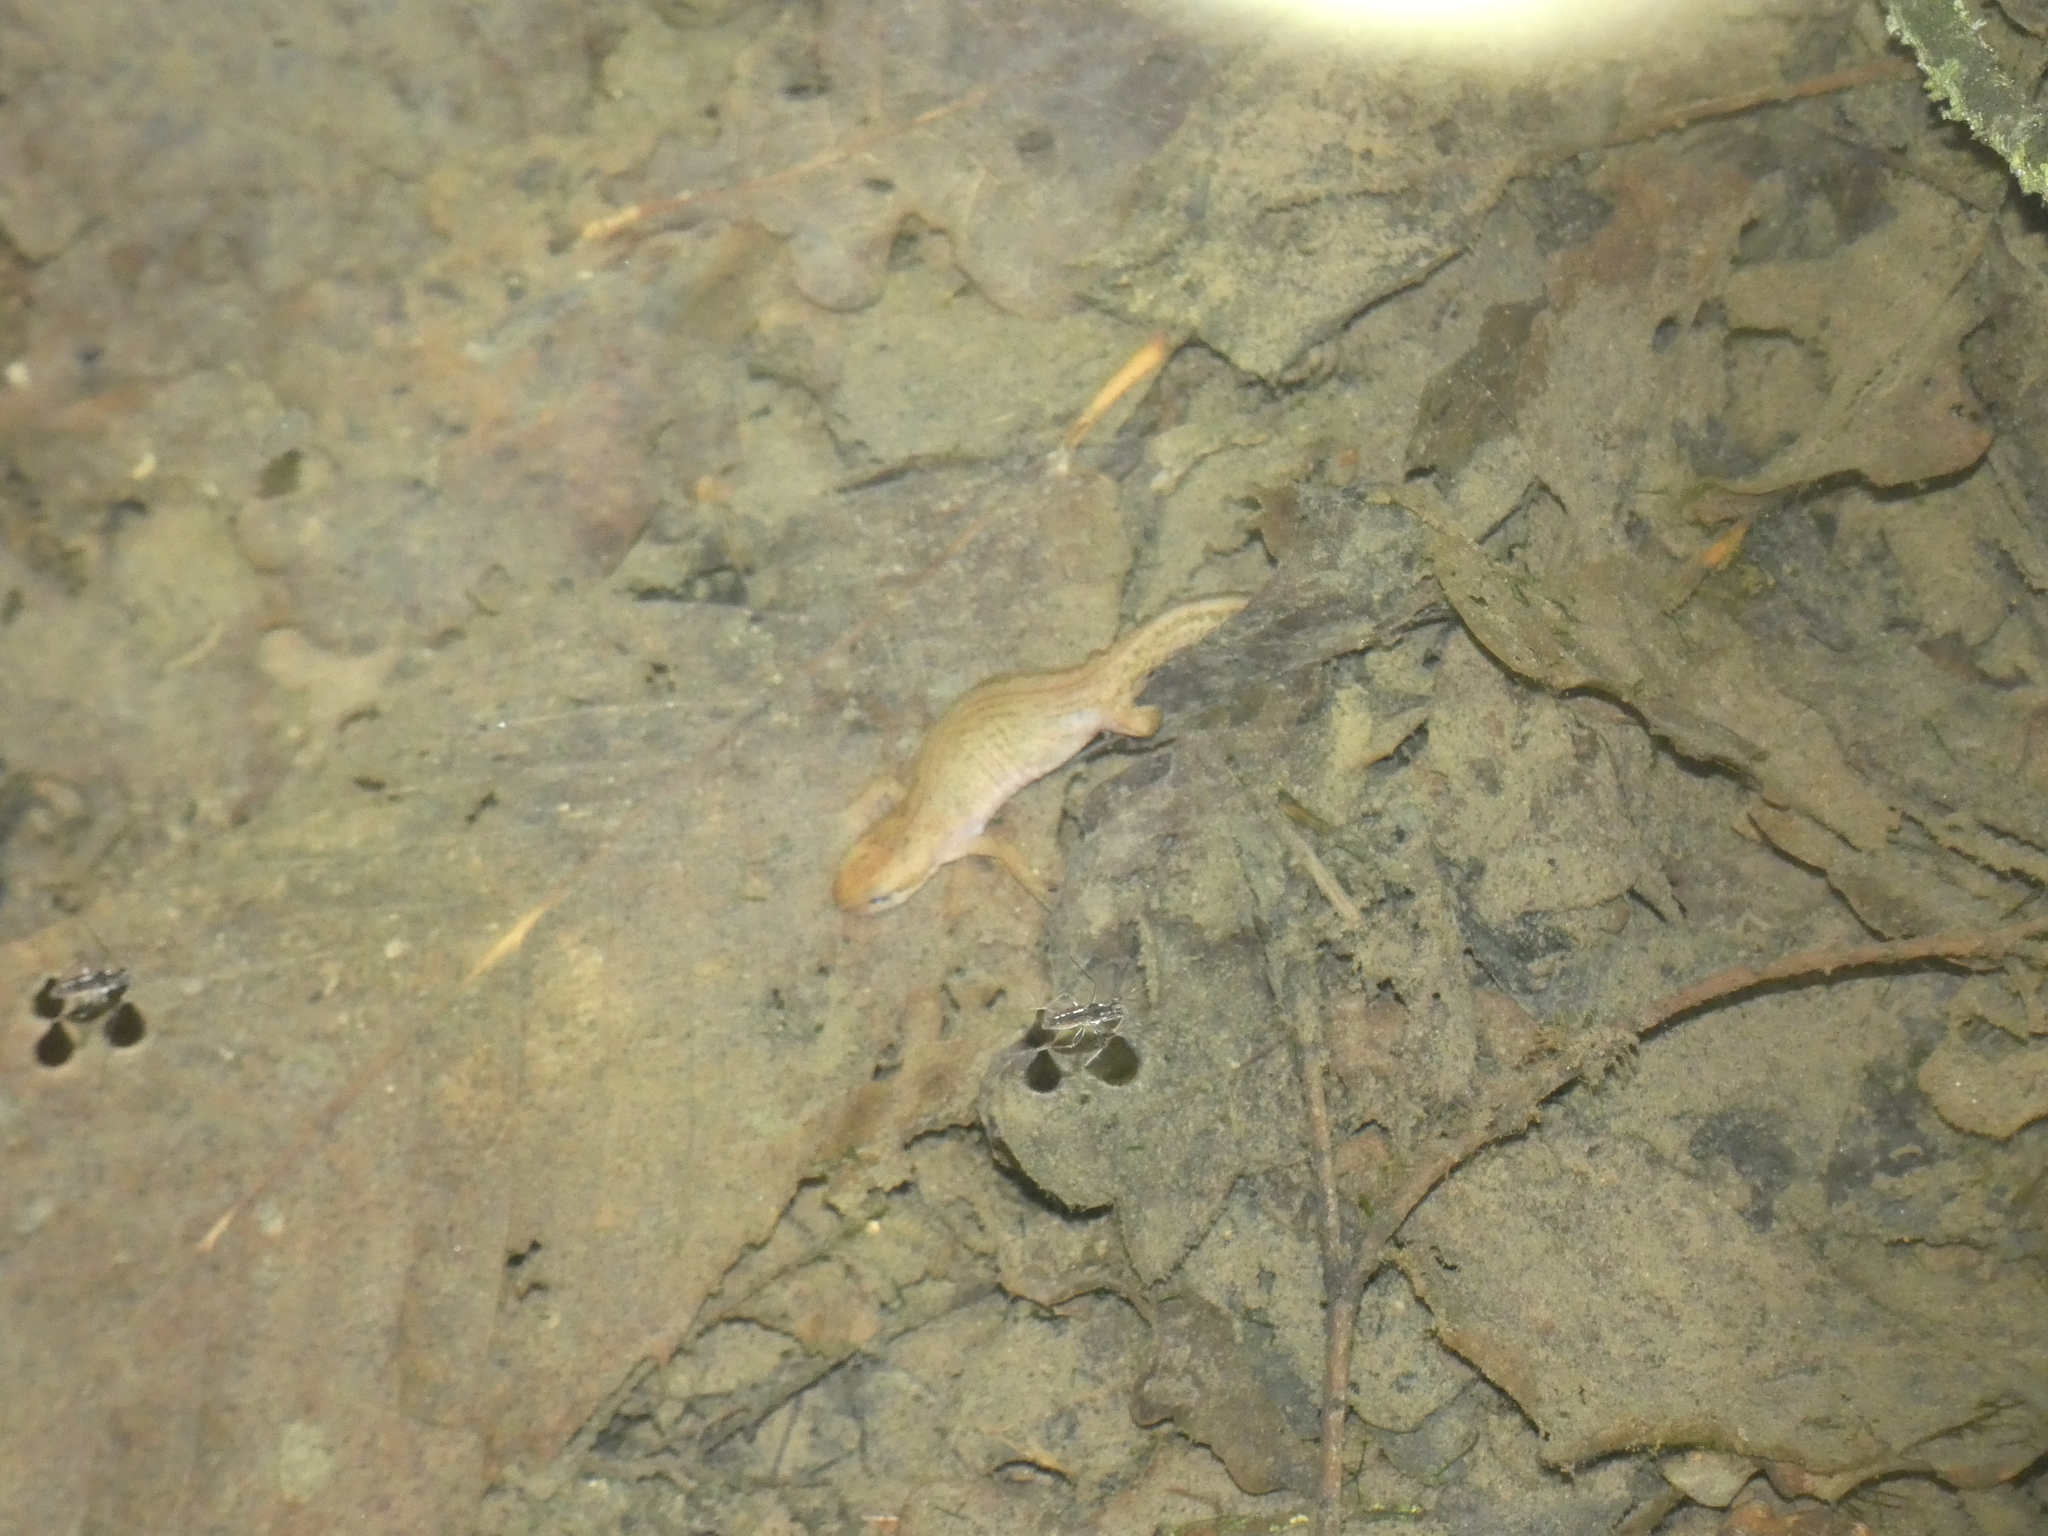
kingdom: Animalia
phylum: Chordata
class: Amphibia
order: Caudata
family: Salamandridae
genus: Lissotriton
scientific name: Lissotriton helveticus
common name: Palmate newt
